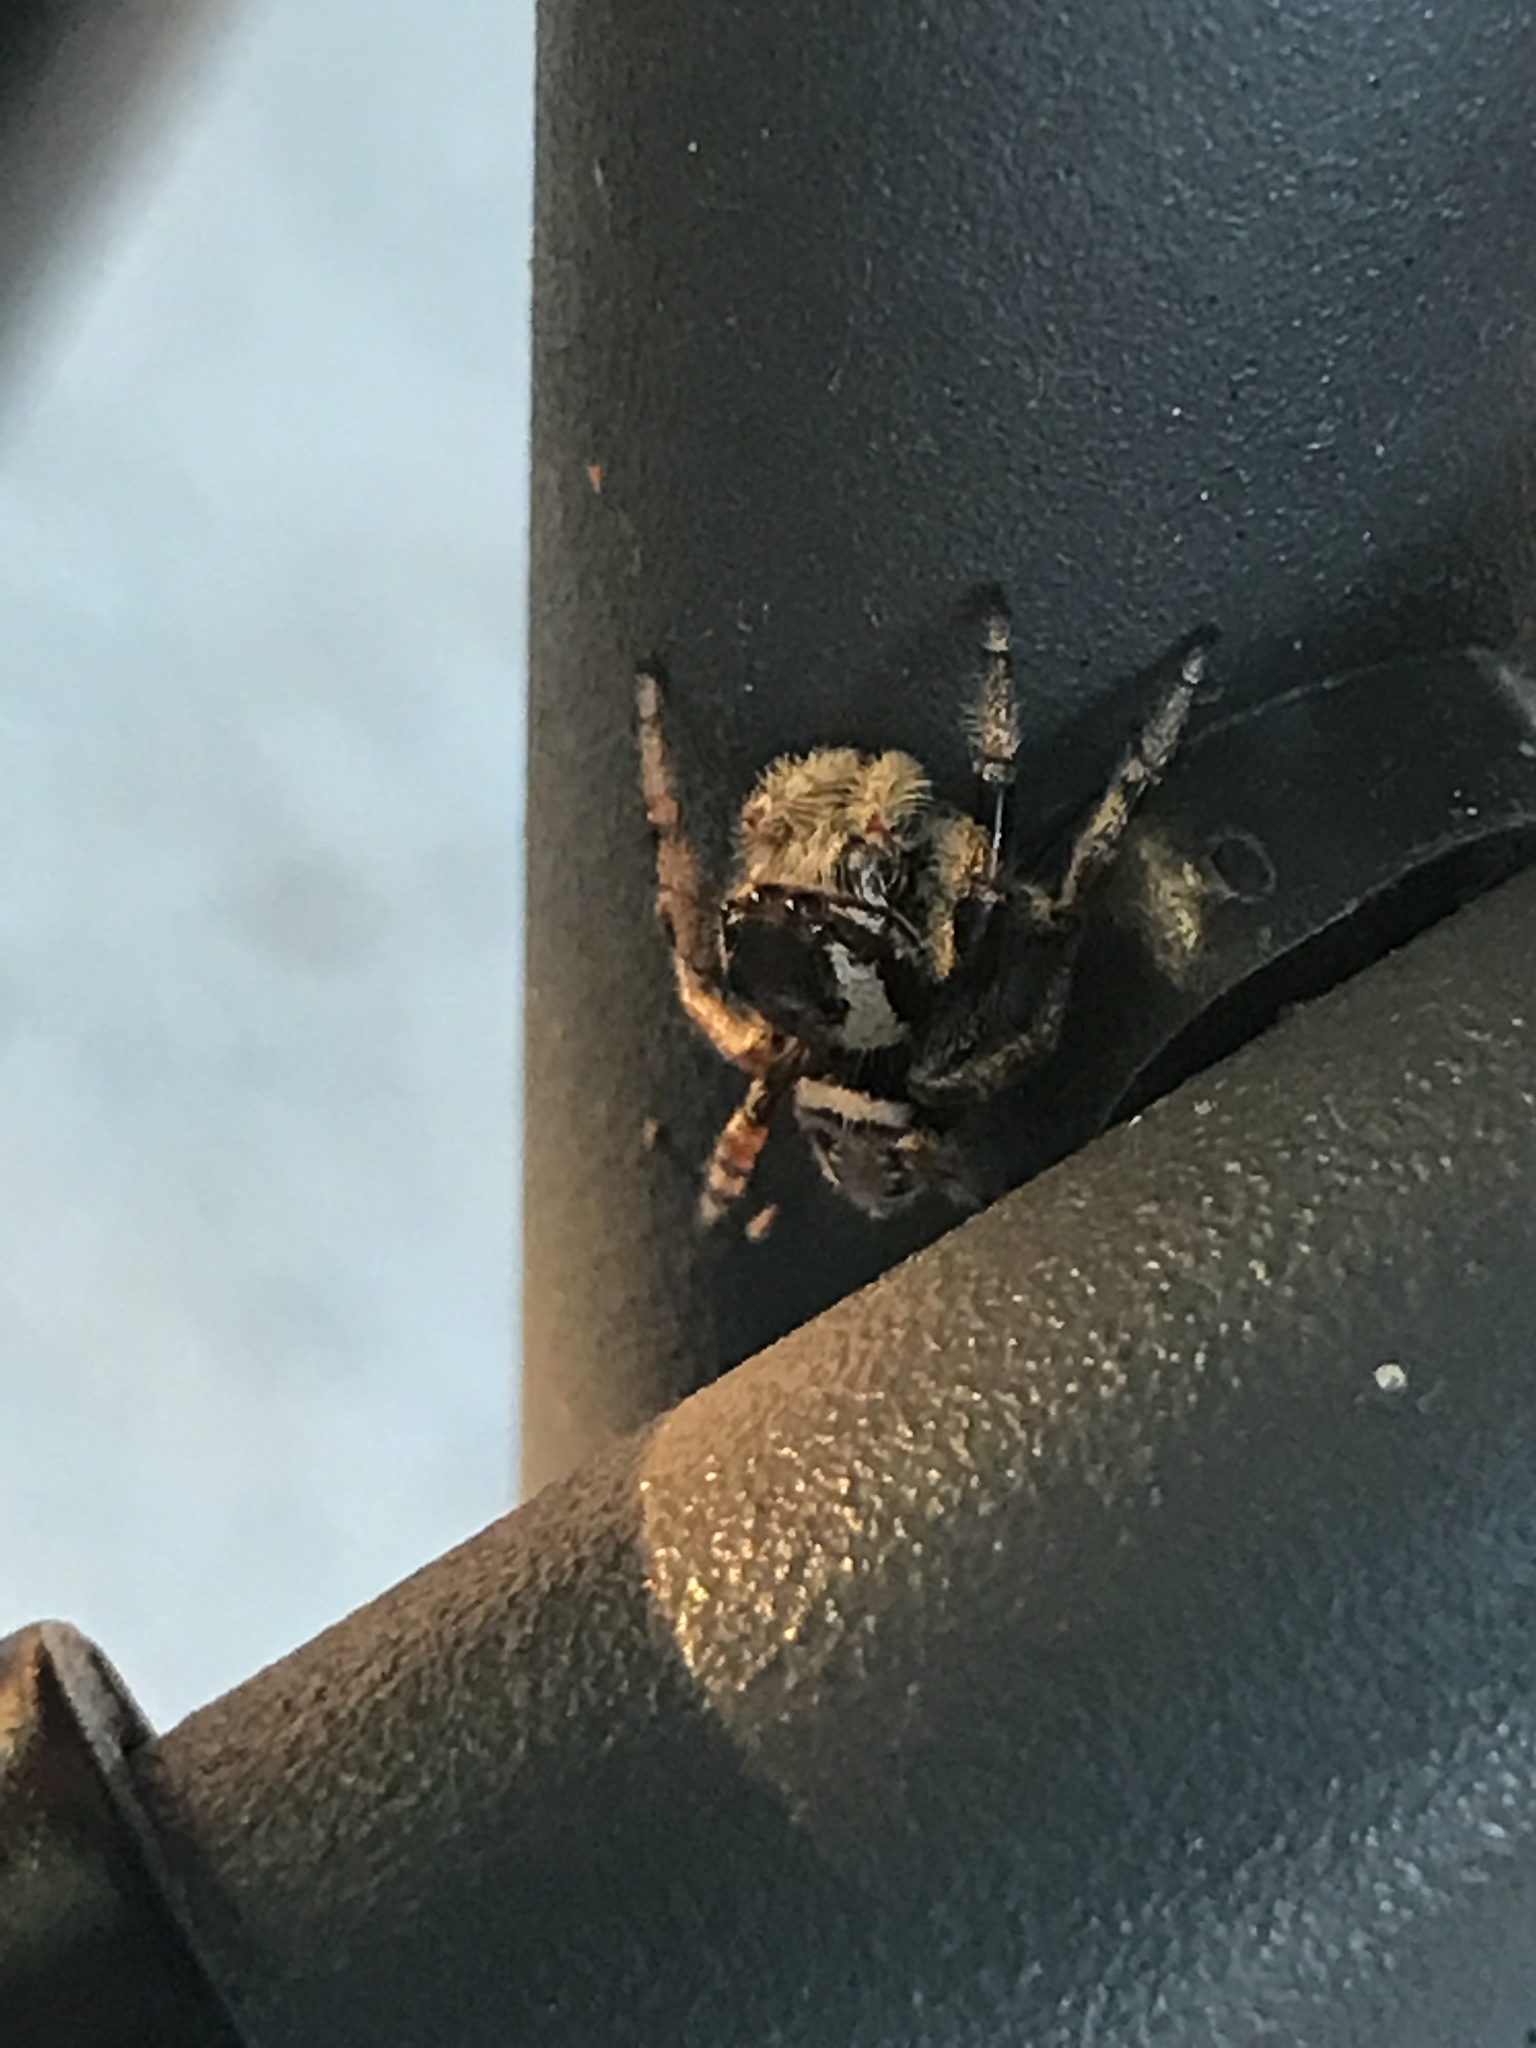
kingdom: Animalia
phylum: Arthropoda
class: Arachnida
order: Araneae
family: Salticidae
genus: Paraphidippus
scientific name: Paraphidippus aurantius
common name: Jumping spiders
